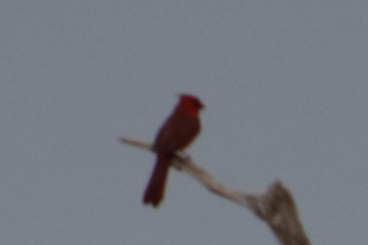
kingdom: Animalia
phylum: Chordata
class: Aves
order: Passeriformes
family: Cardinalidae
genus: Cardinalis
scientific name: Cardinalis cardinalis
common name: Northern cardinal
